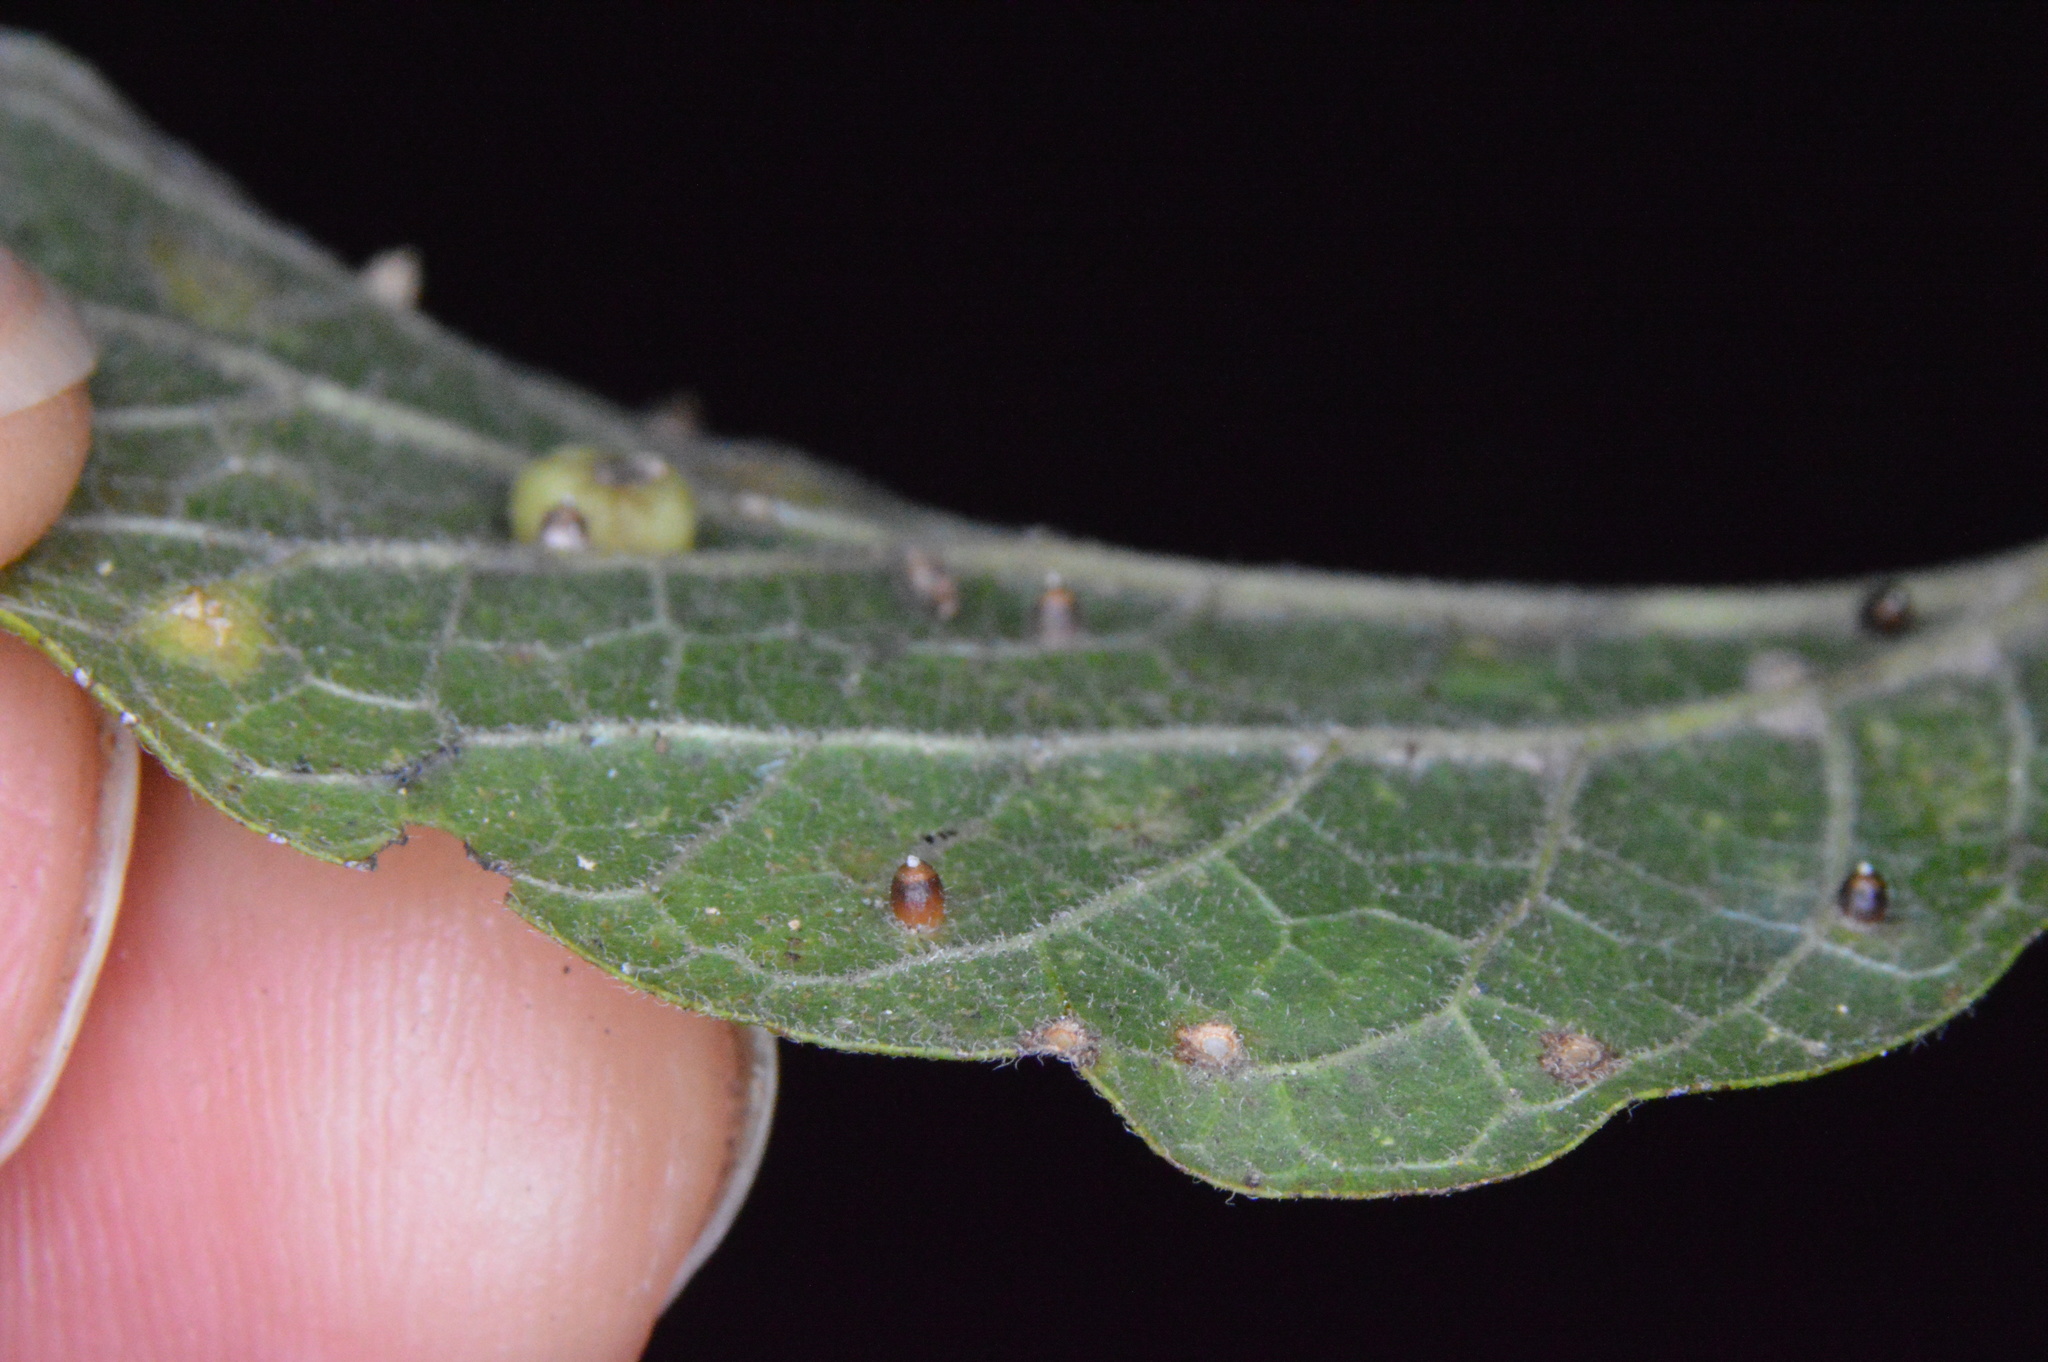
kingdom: Animalia
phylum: Arthropoda
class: Insecta
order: Diptera
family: Cecidomyiidae
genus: Celticecis
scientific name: Celticecis cupiformis
